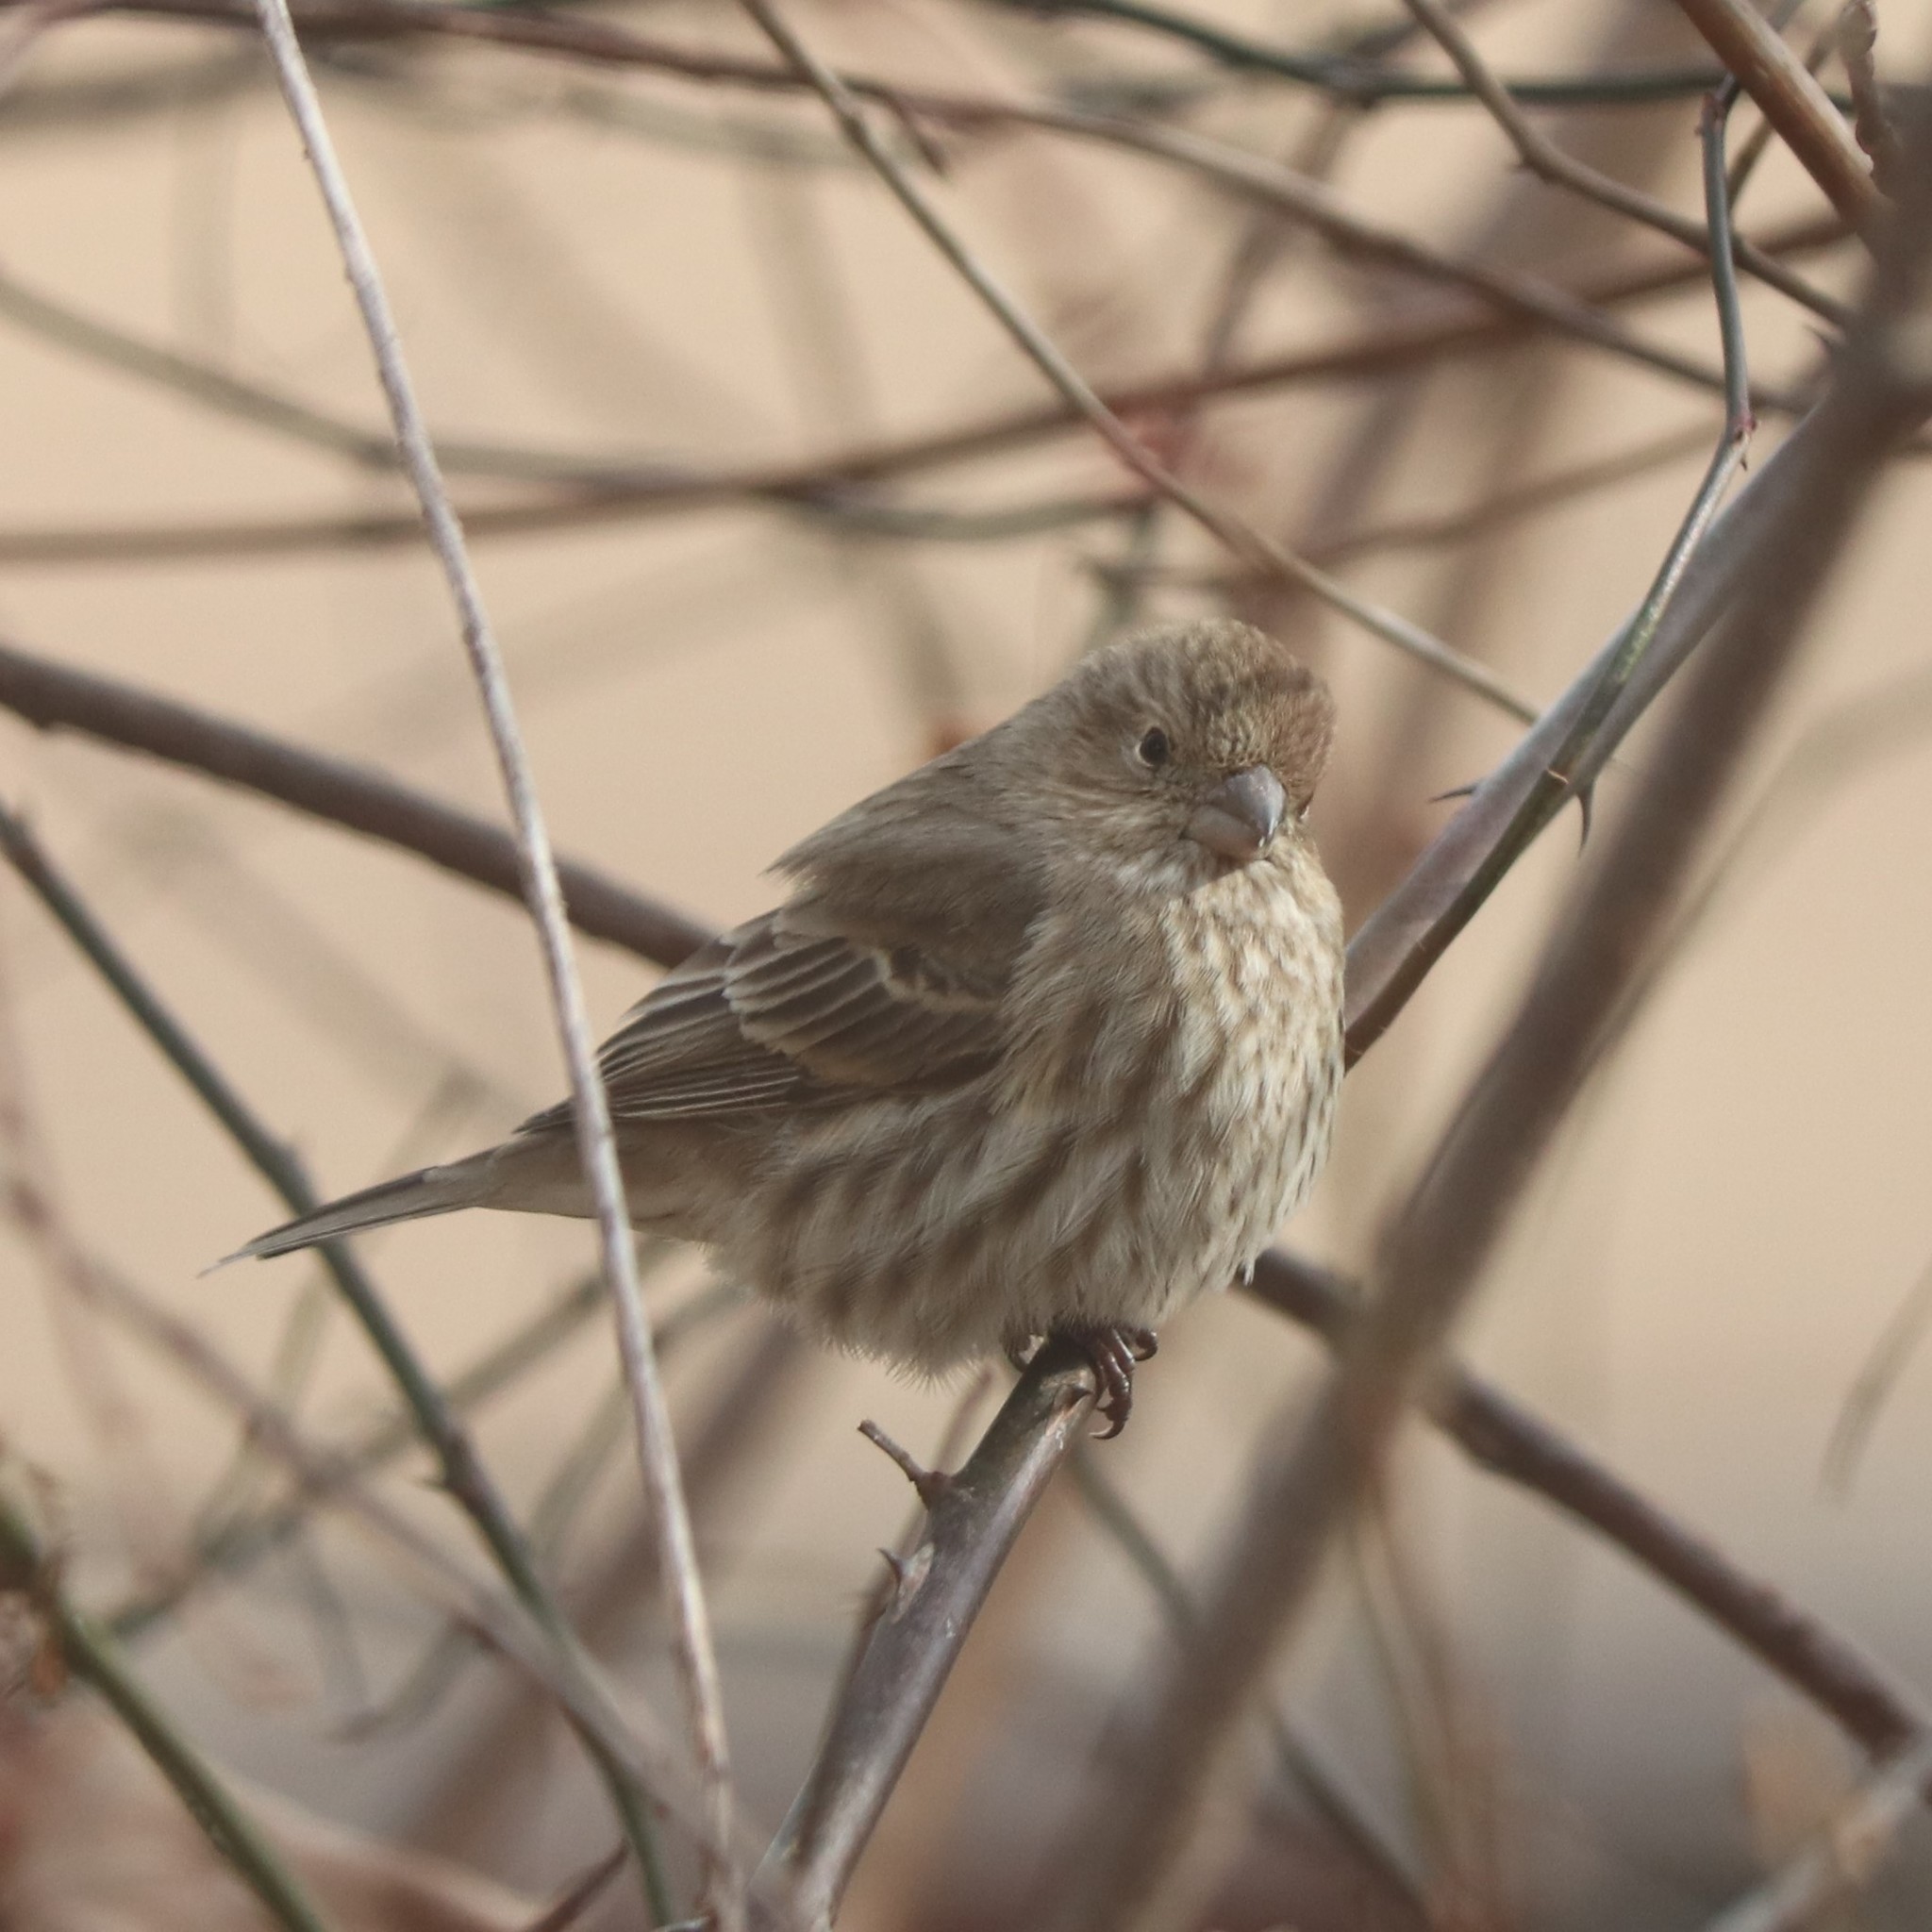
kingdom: Animalia
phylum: Chordata
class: Aves
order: Passeriformes
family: Fringillidae
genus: Haemorhous
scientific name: Haemorhous mexicanus
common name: House finch
